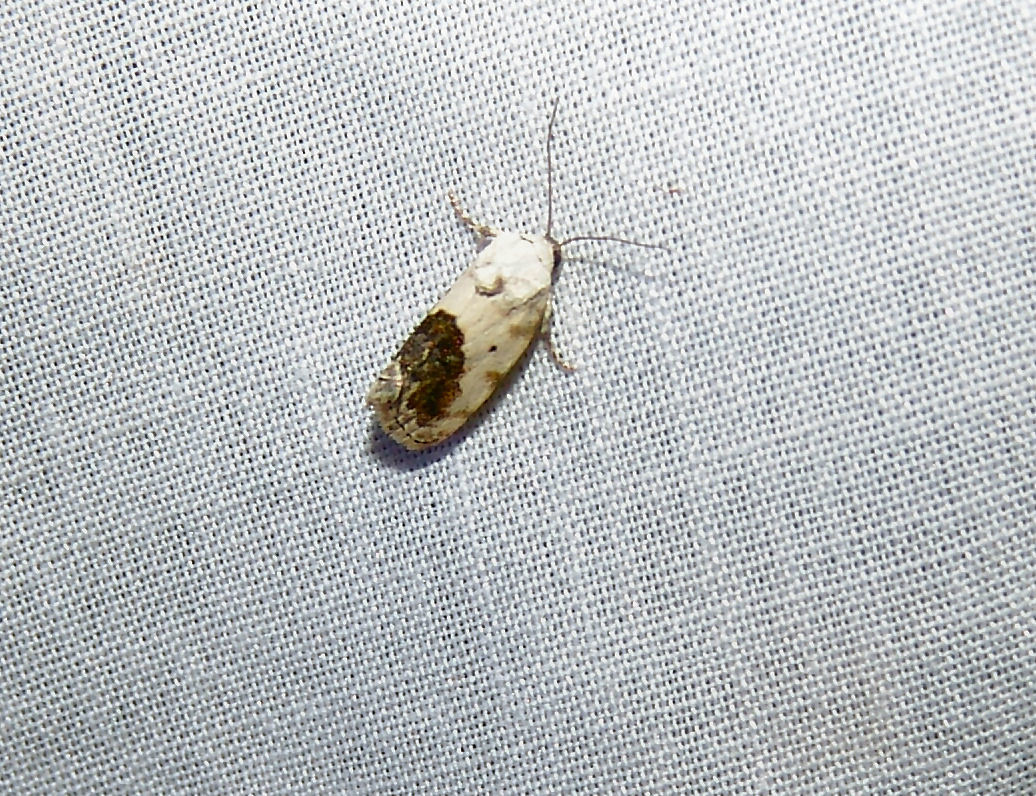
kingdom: Animalia
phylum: Arthropoda
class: Insecta
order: Lepidoptera
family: Noctuidae
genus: Acontia
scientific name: Acontia erastrioides
